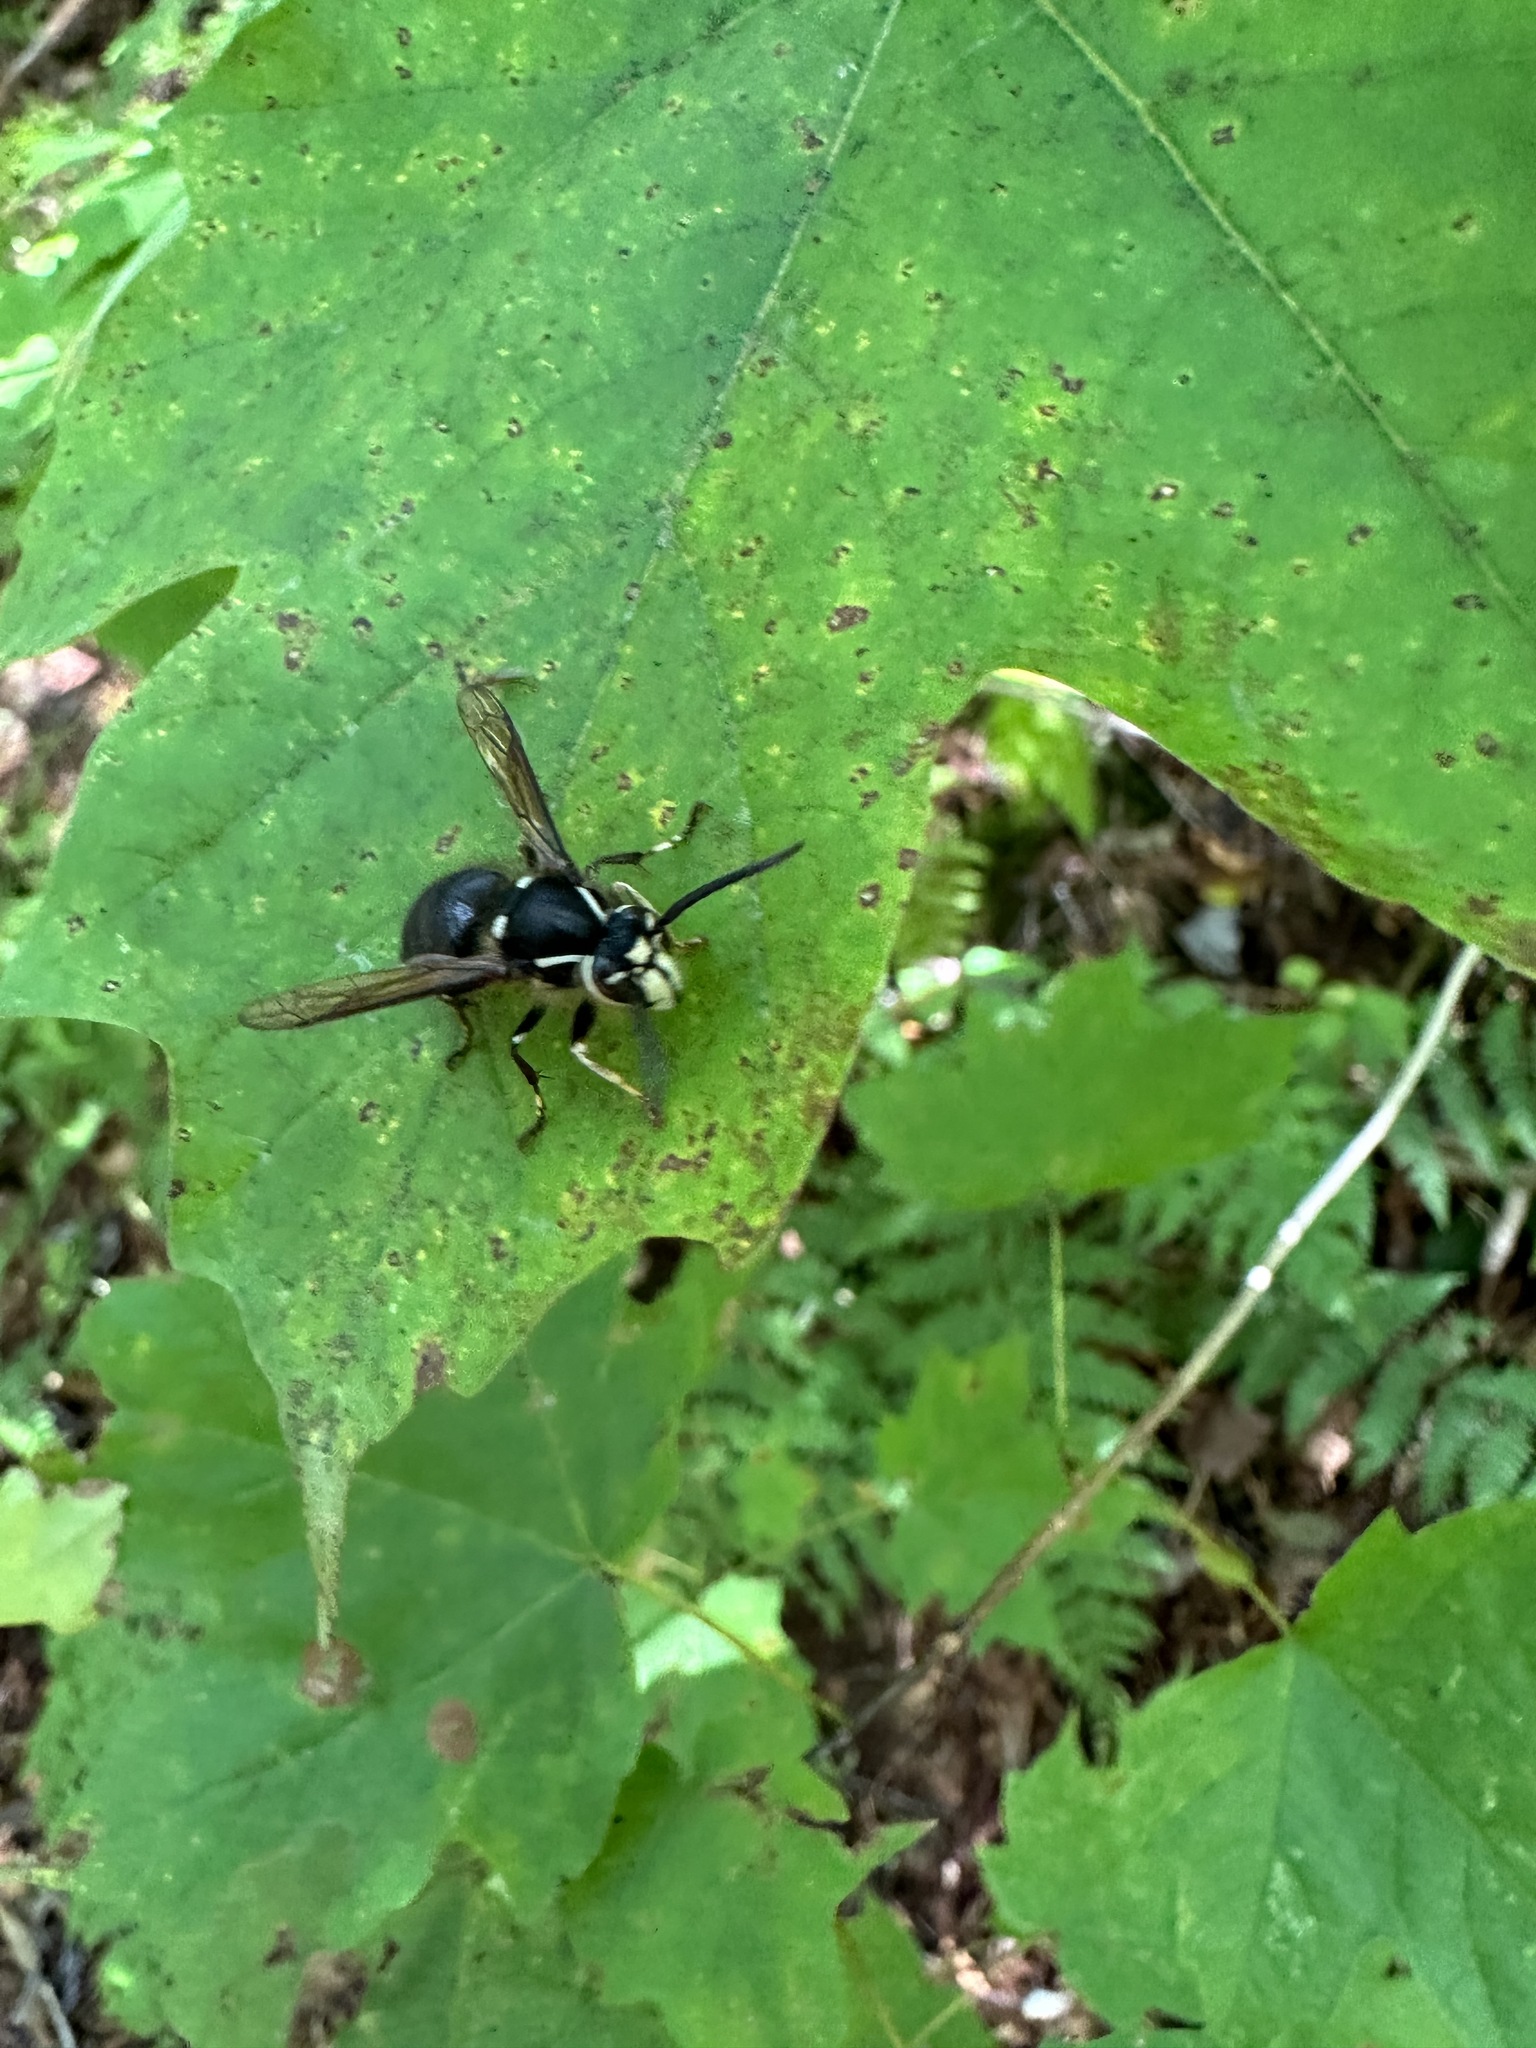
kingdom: Animalia
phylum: Arthropoda
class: Insecta
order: Hymenoptera
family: Vespidae
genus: Dolichovespula
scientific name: Dolichovespula maculata
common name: Bald-faced hornet
